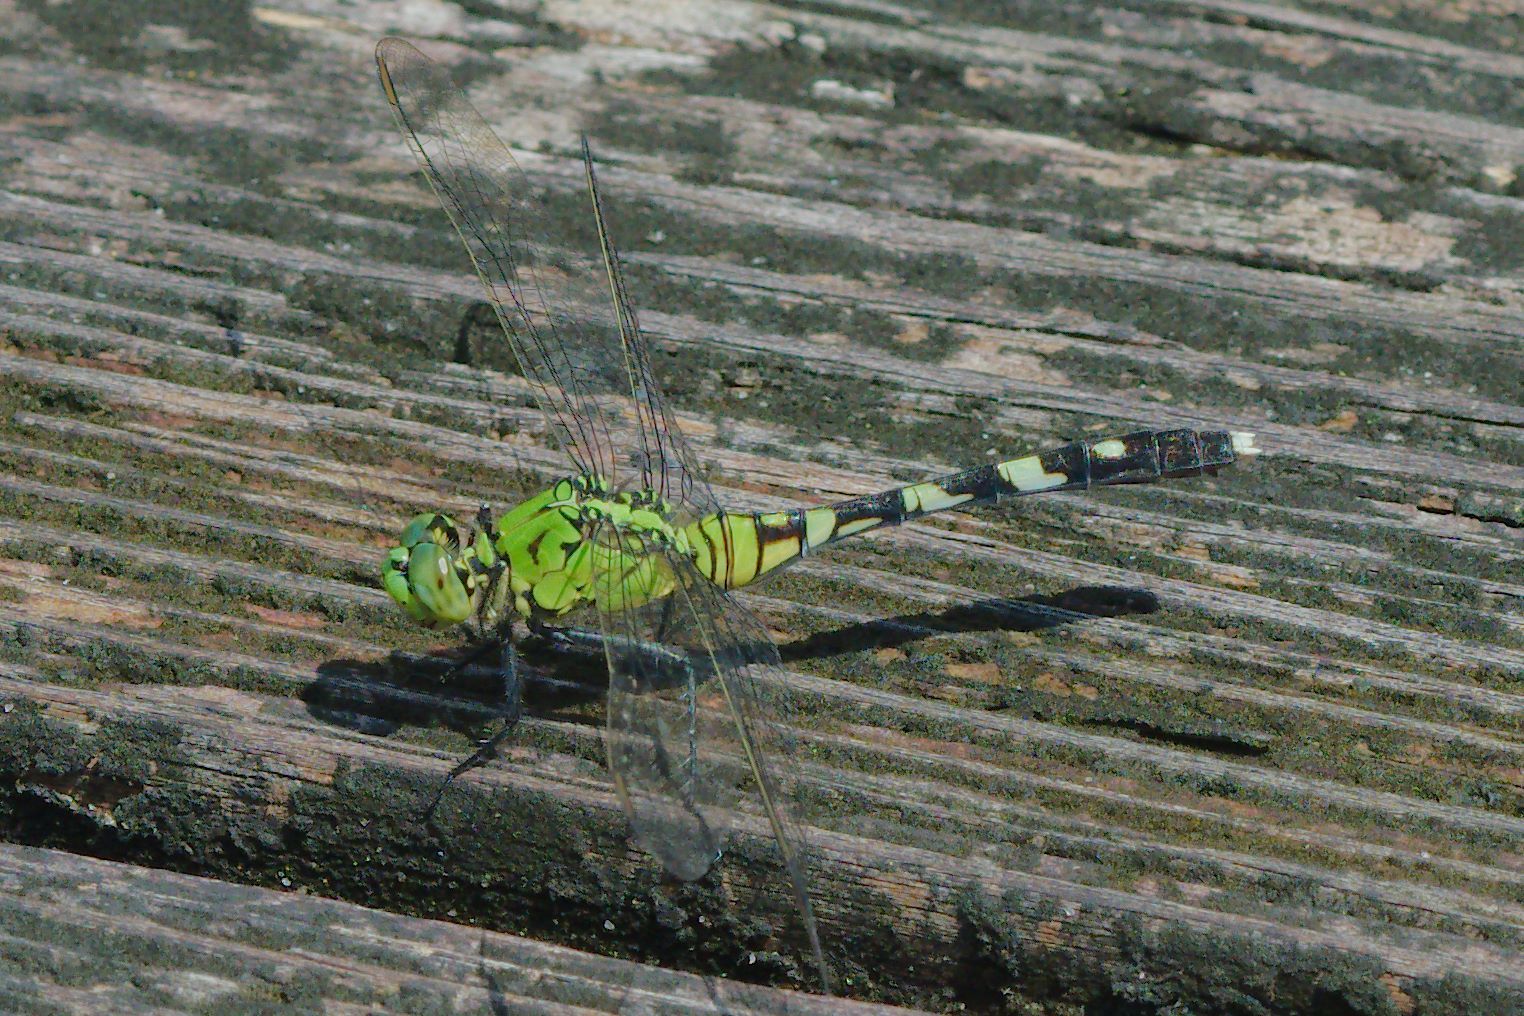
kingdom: Animalia
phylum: Arthropoda
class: Insecta
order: Odonata
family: Libellulidae
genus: Erythemis
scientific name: Erythemis simplicicollis
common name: Eastern pondhawk
